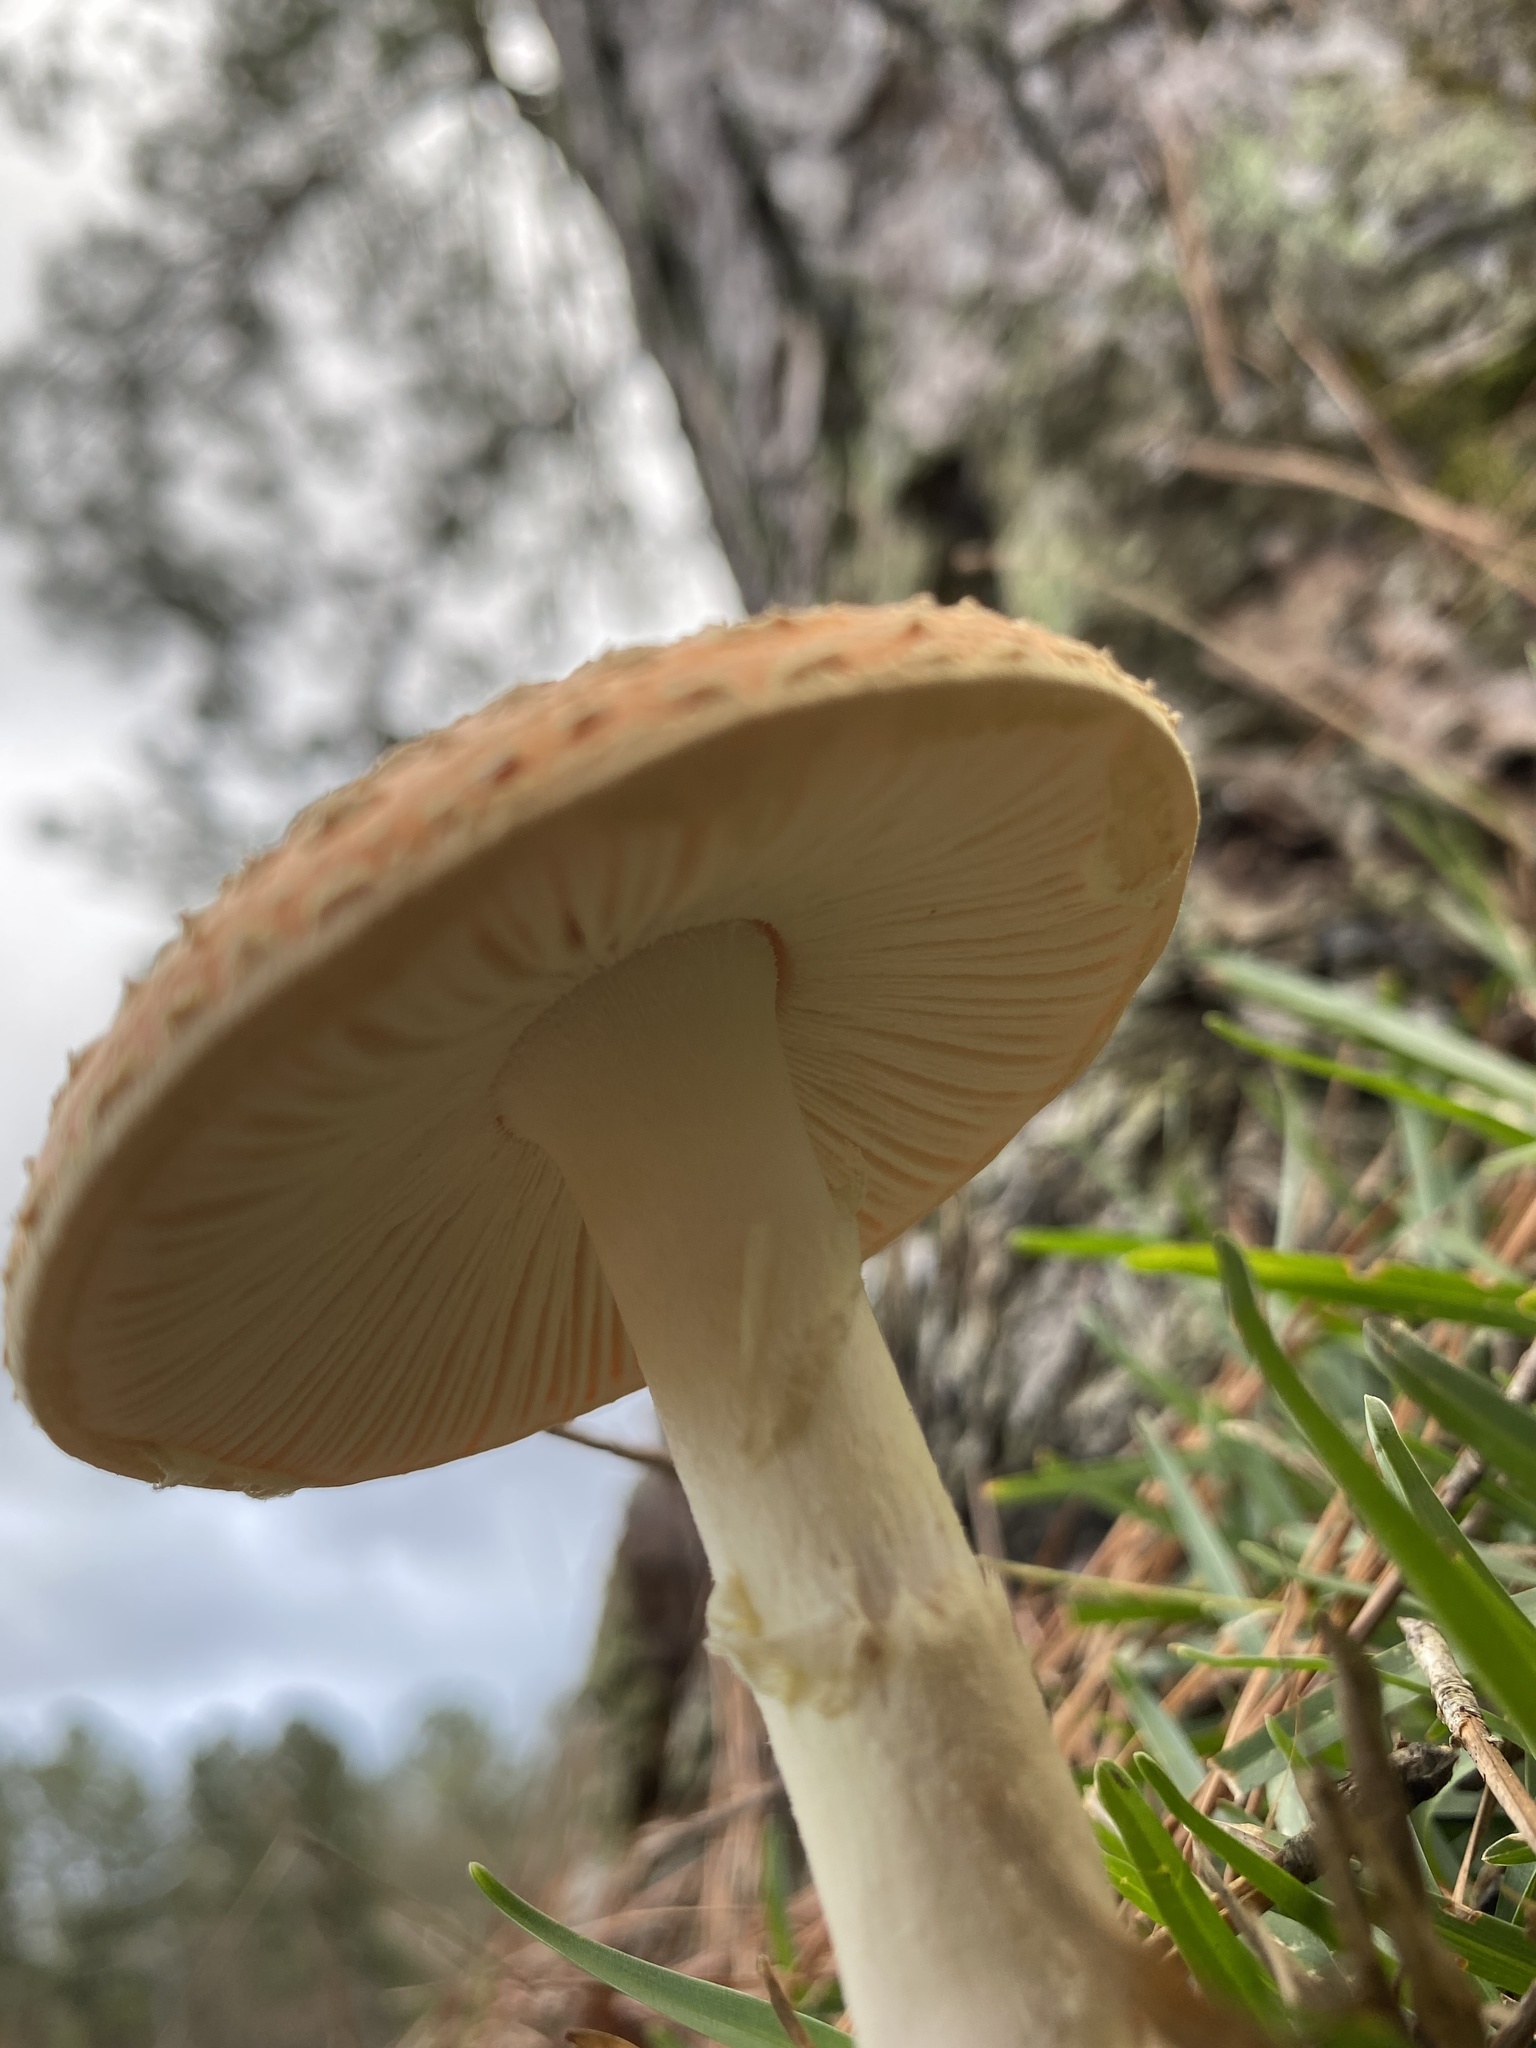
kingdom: Fungi
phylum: Basidiomycota
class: Agaricomycetes
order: Agaricales
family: Amanitaceae
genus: Amanita
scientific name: Amanita persicina
